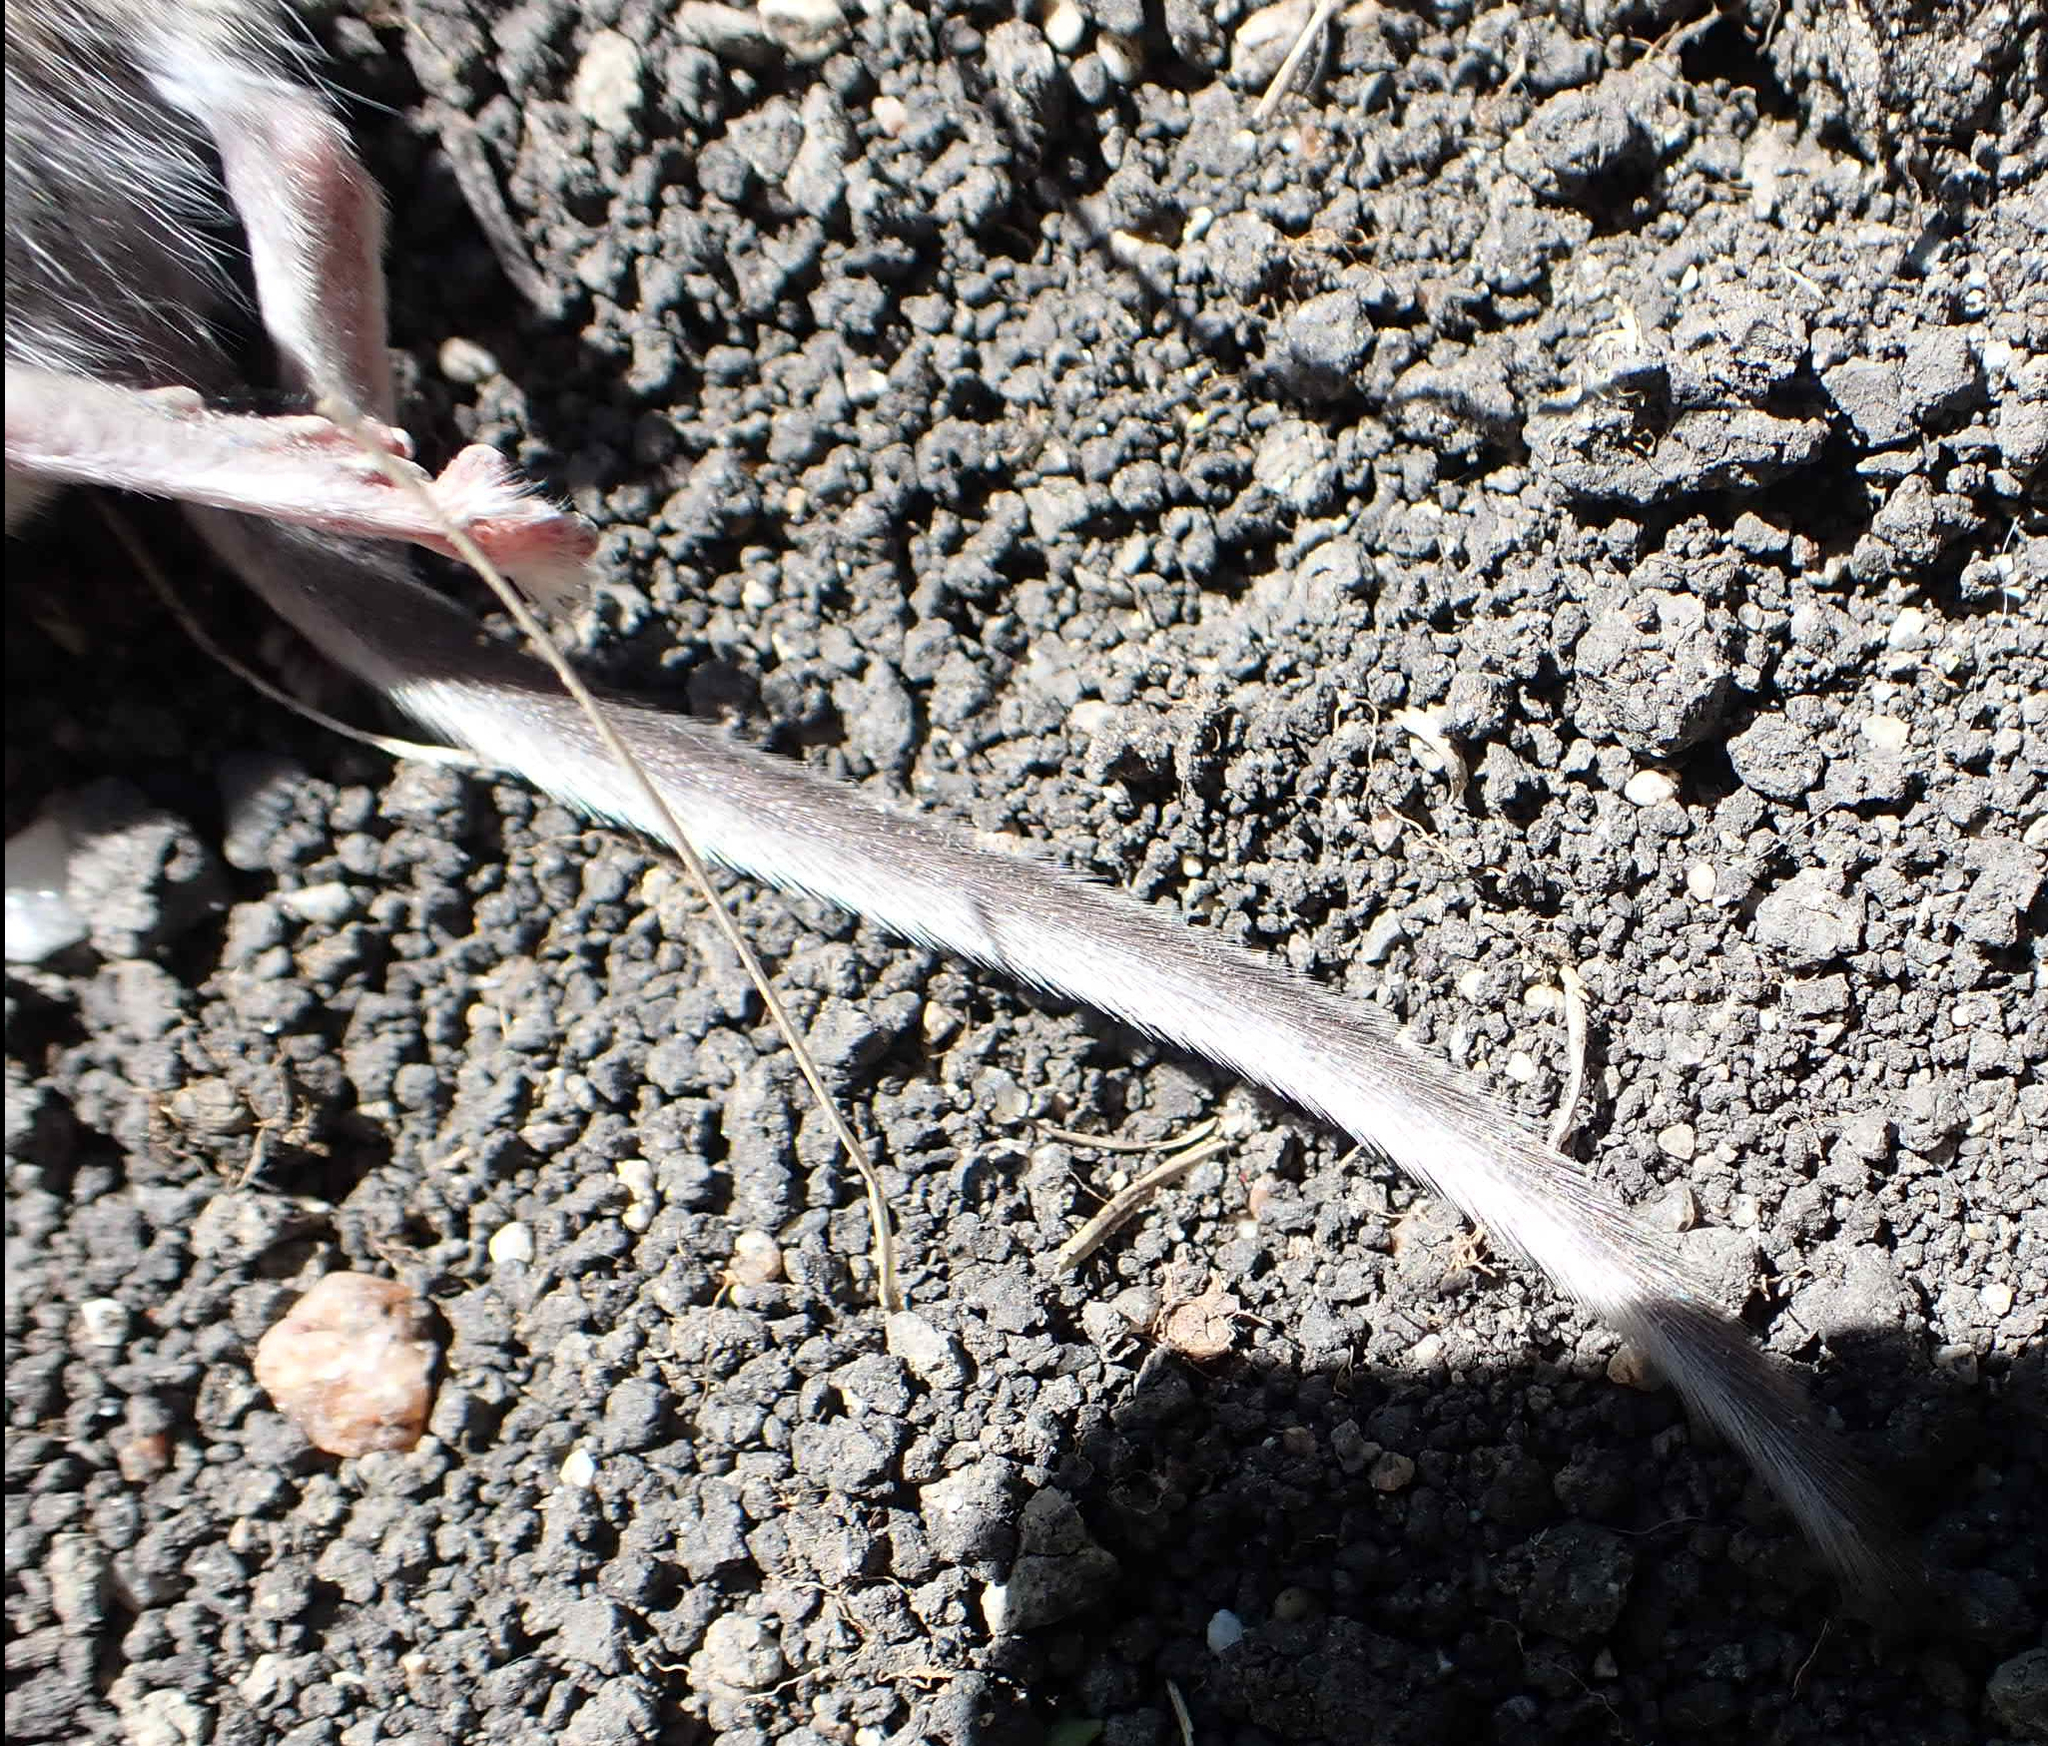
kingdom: Animalia
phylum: Chordata
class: Mammalia
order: Rodentia
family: Cricetidae
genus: Peromyscus
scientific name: Peromyscus maniculatus
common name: Deer mouse
